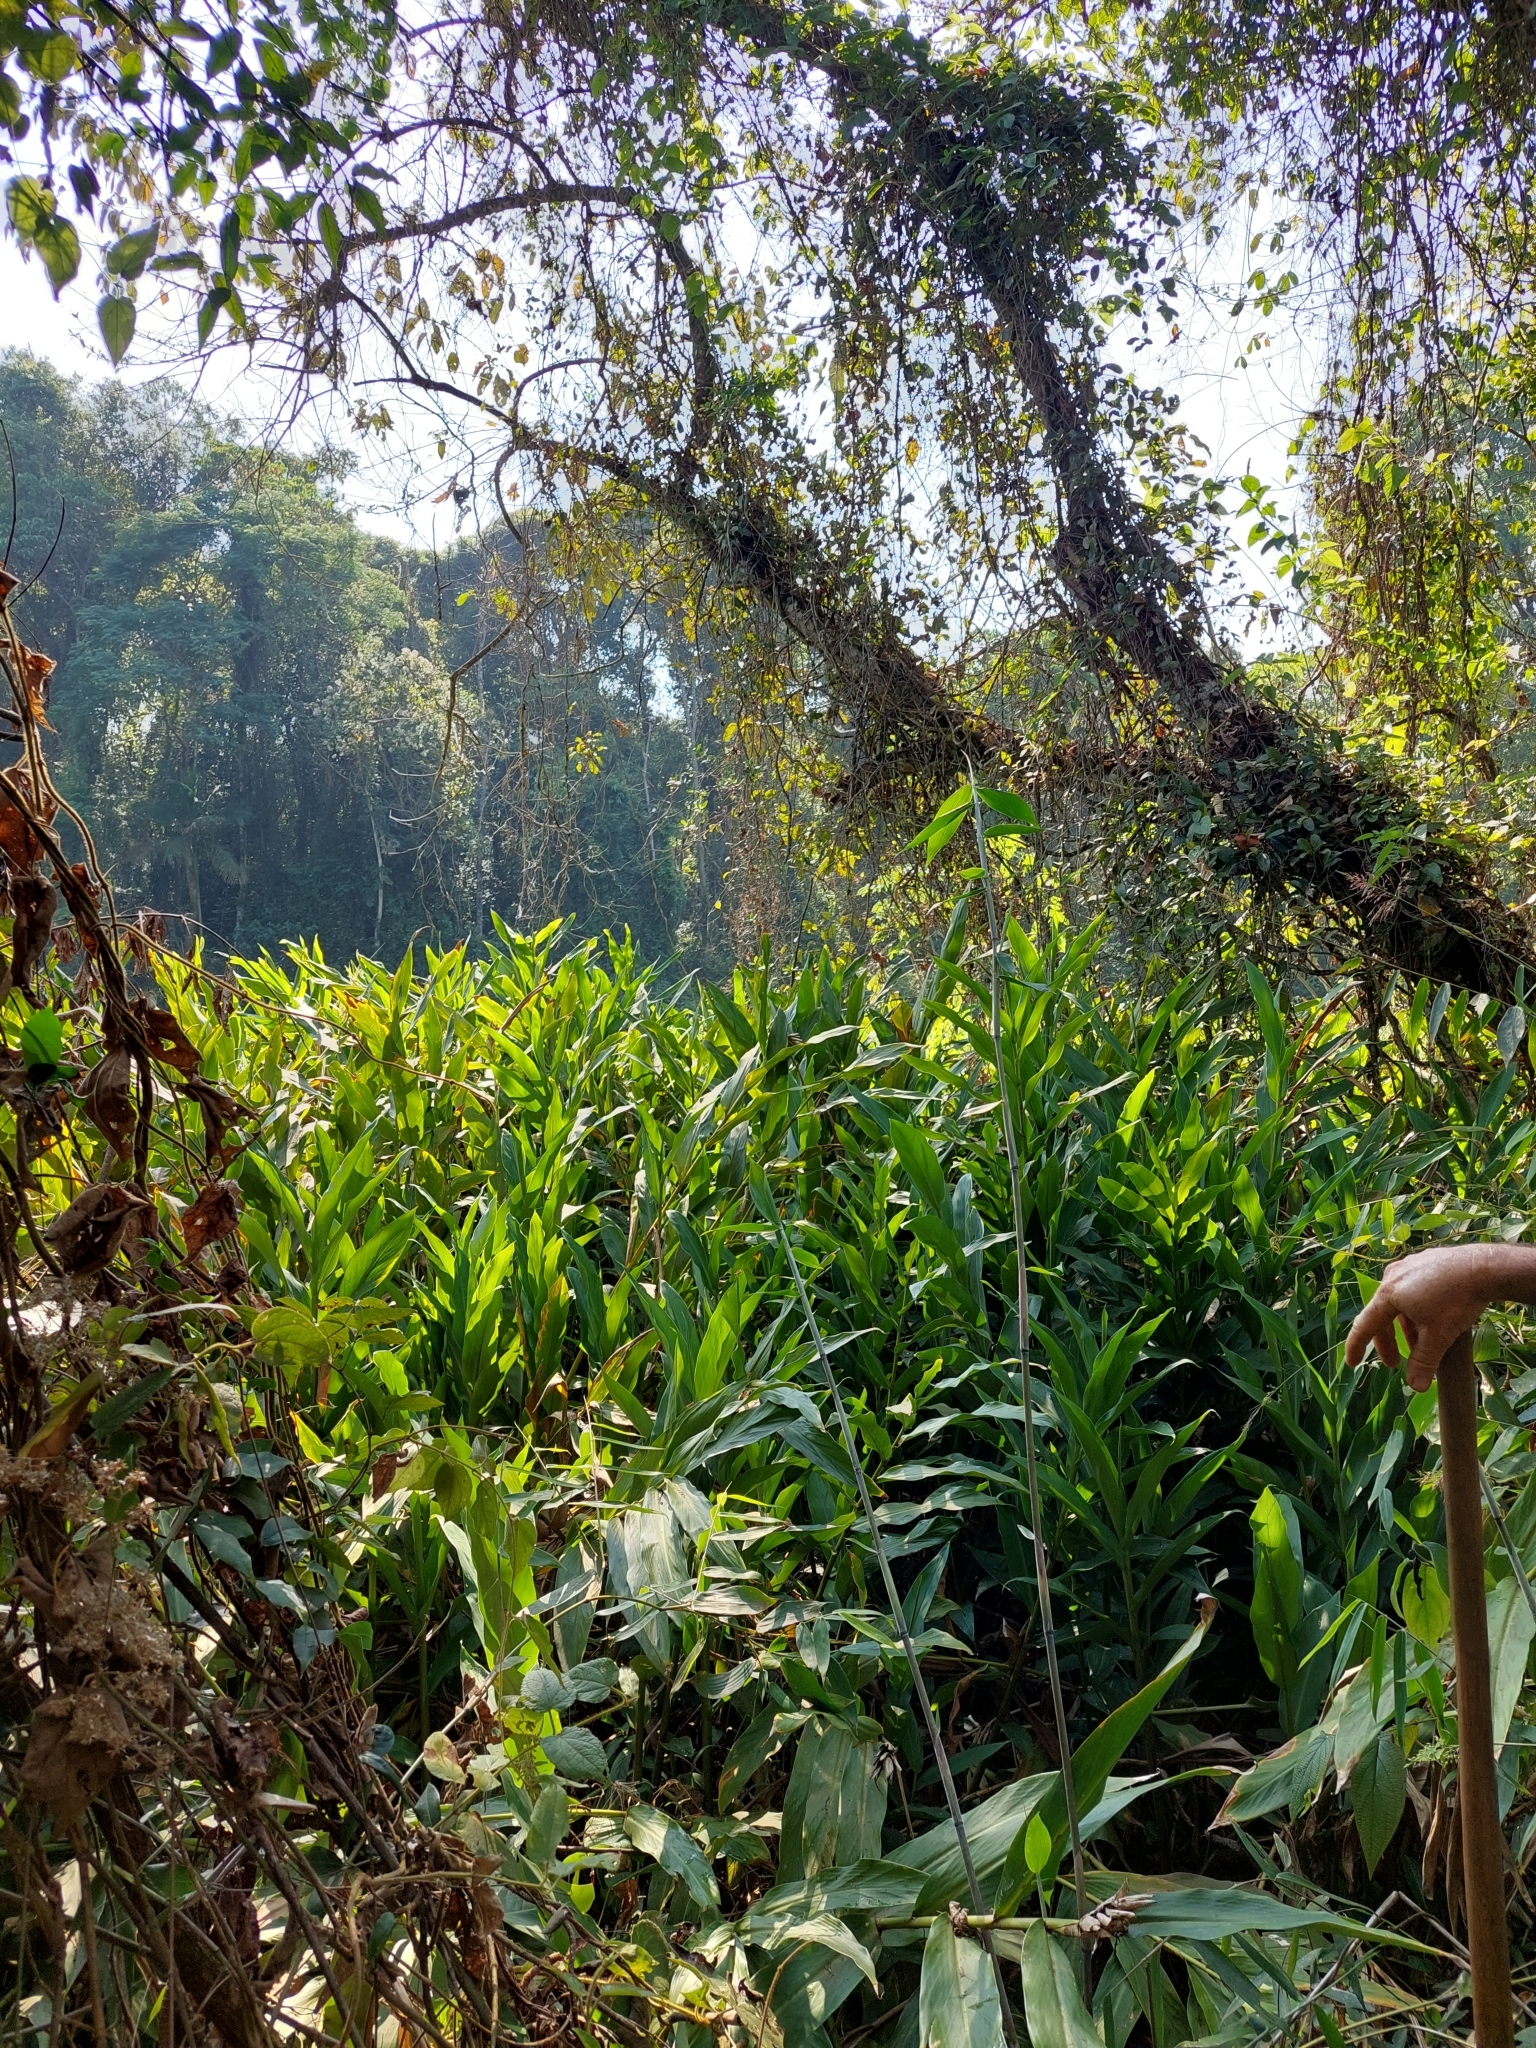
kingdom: Plantae
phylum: Tracheophyta
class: Liliopsida
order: Zingiberales
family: Zingiberaceae
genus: Hedychium
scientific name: Hedychium coronarium
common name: White garland-lily
